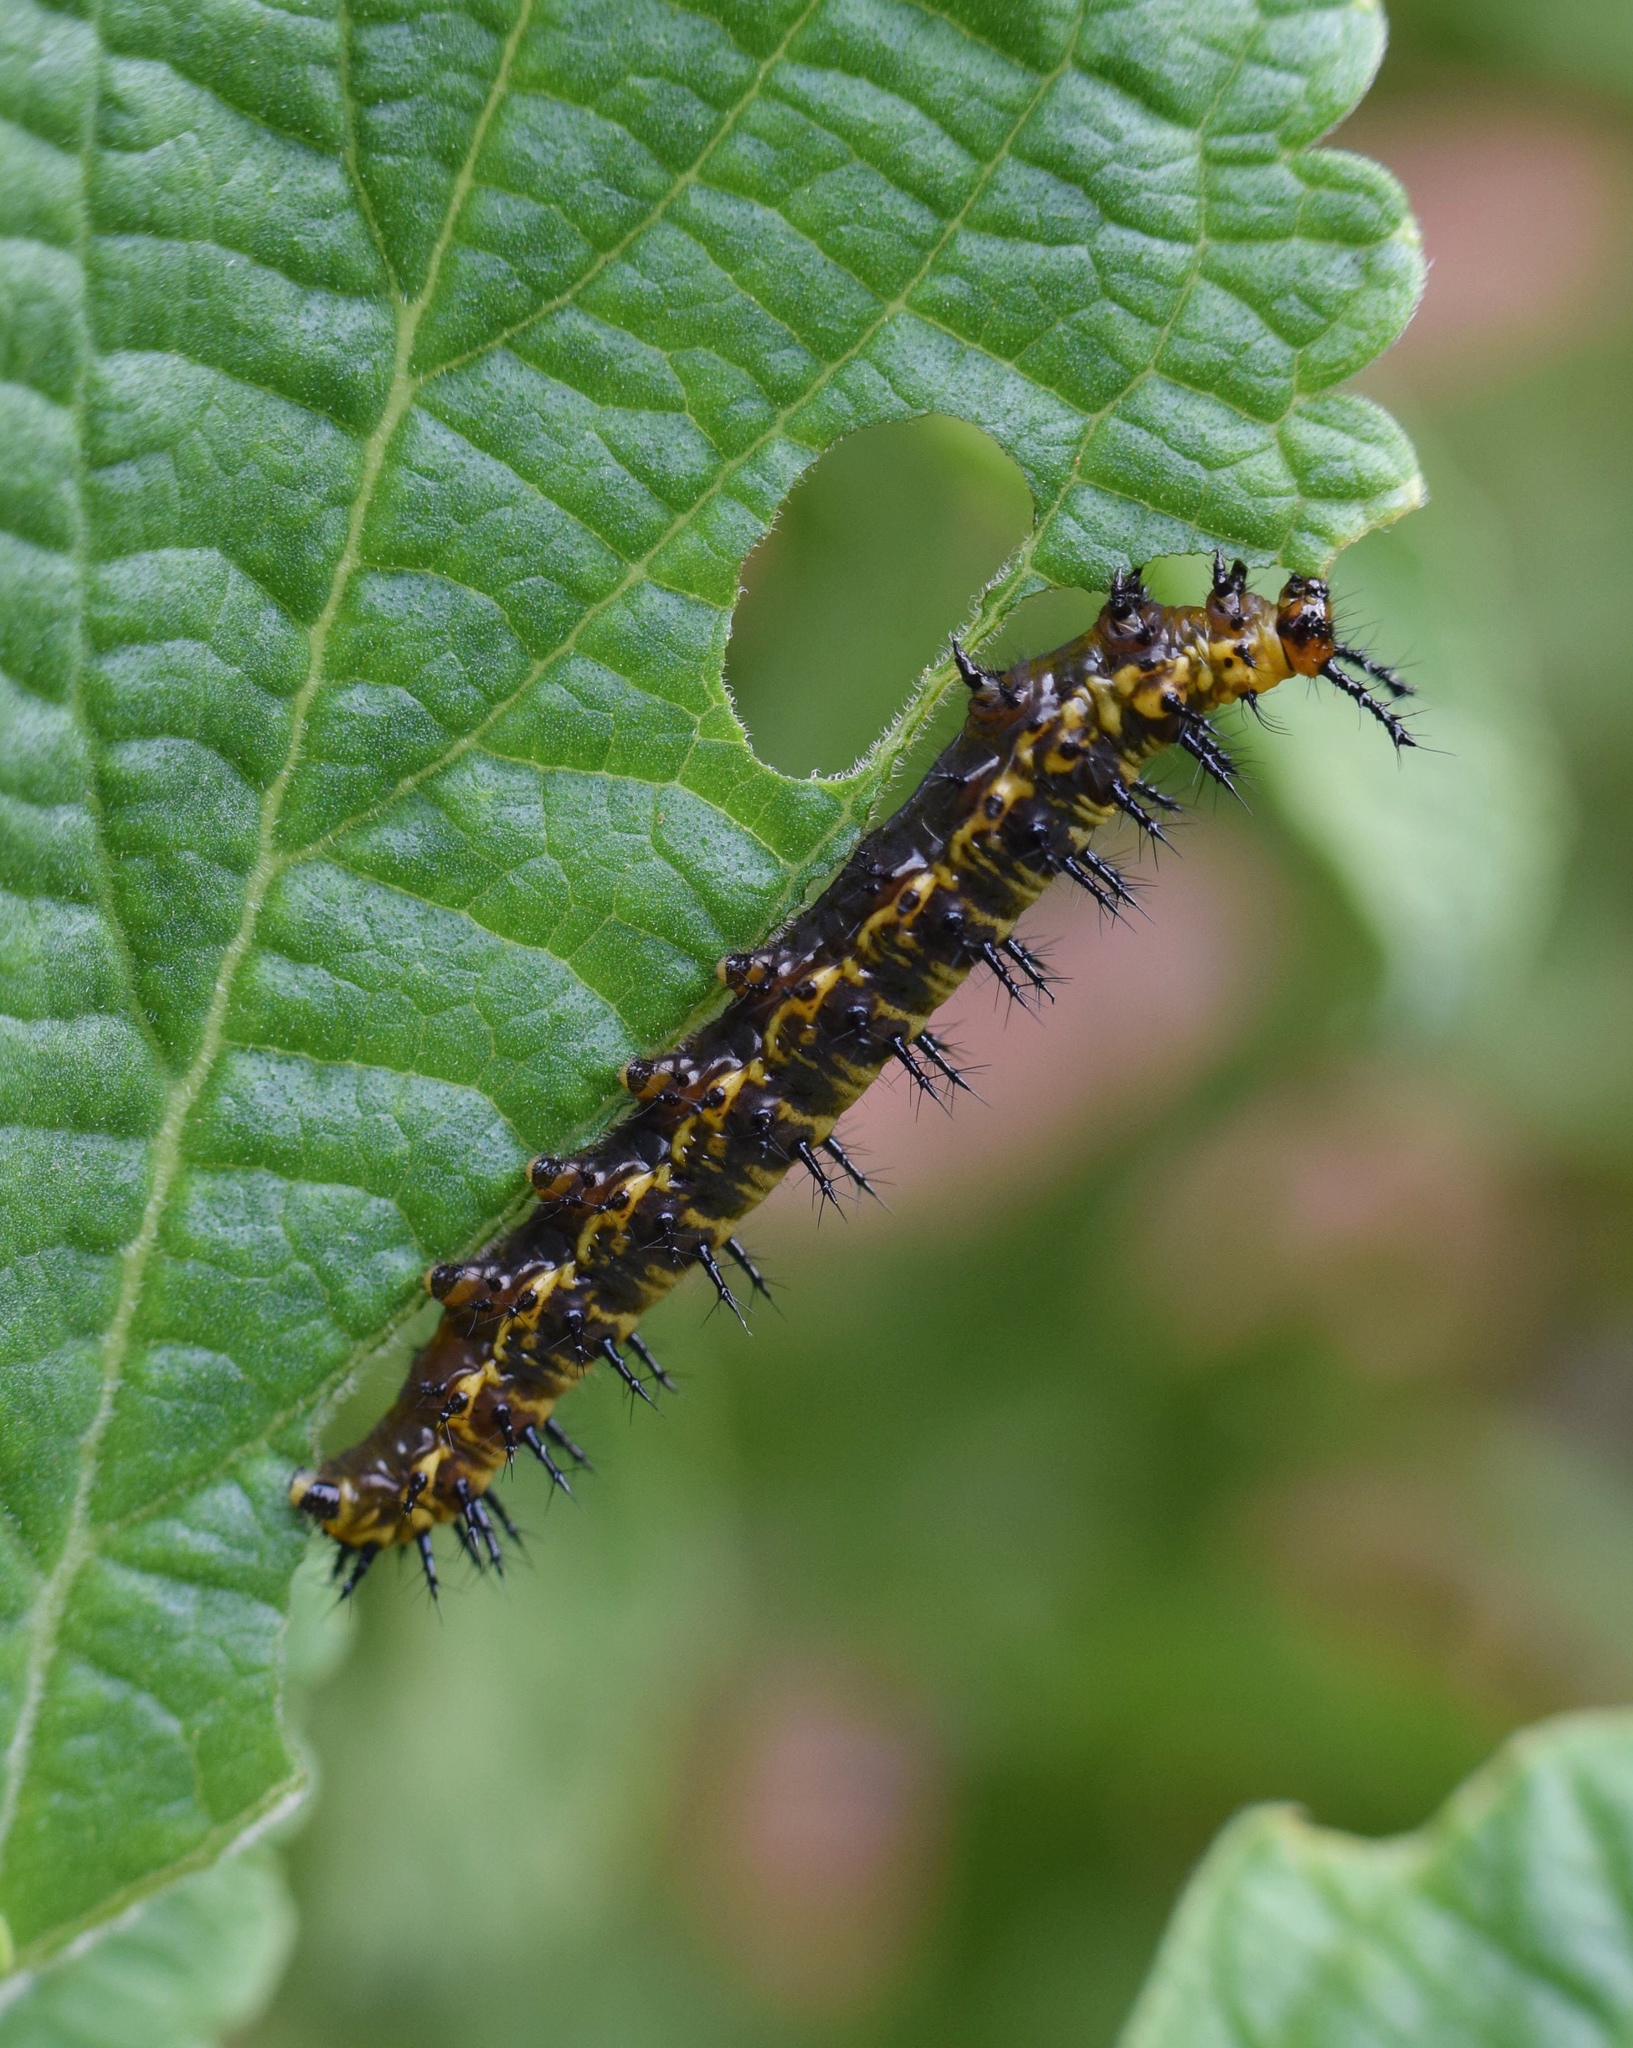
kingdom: Animalia
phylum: Arthropoda
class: Insecta
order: Lepidoptera
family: Nymphalidae
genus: Precis
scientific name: Precis octavia
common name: Gaudy commodore
